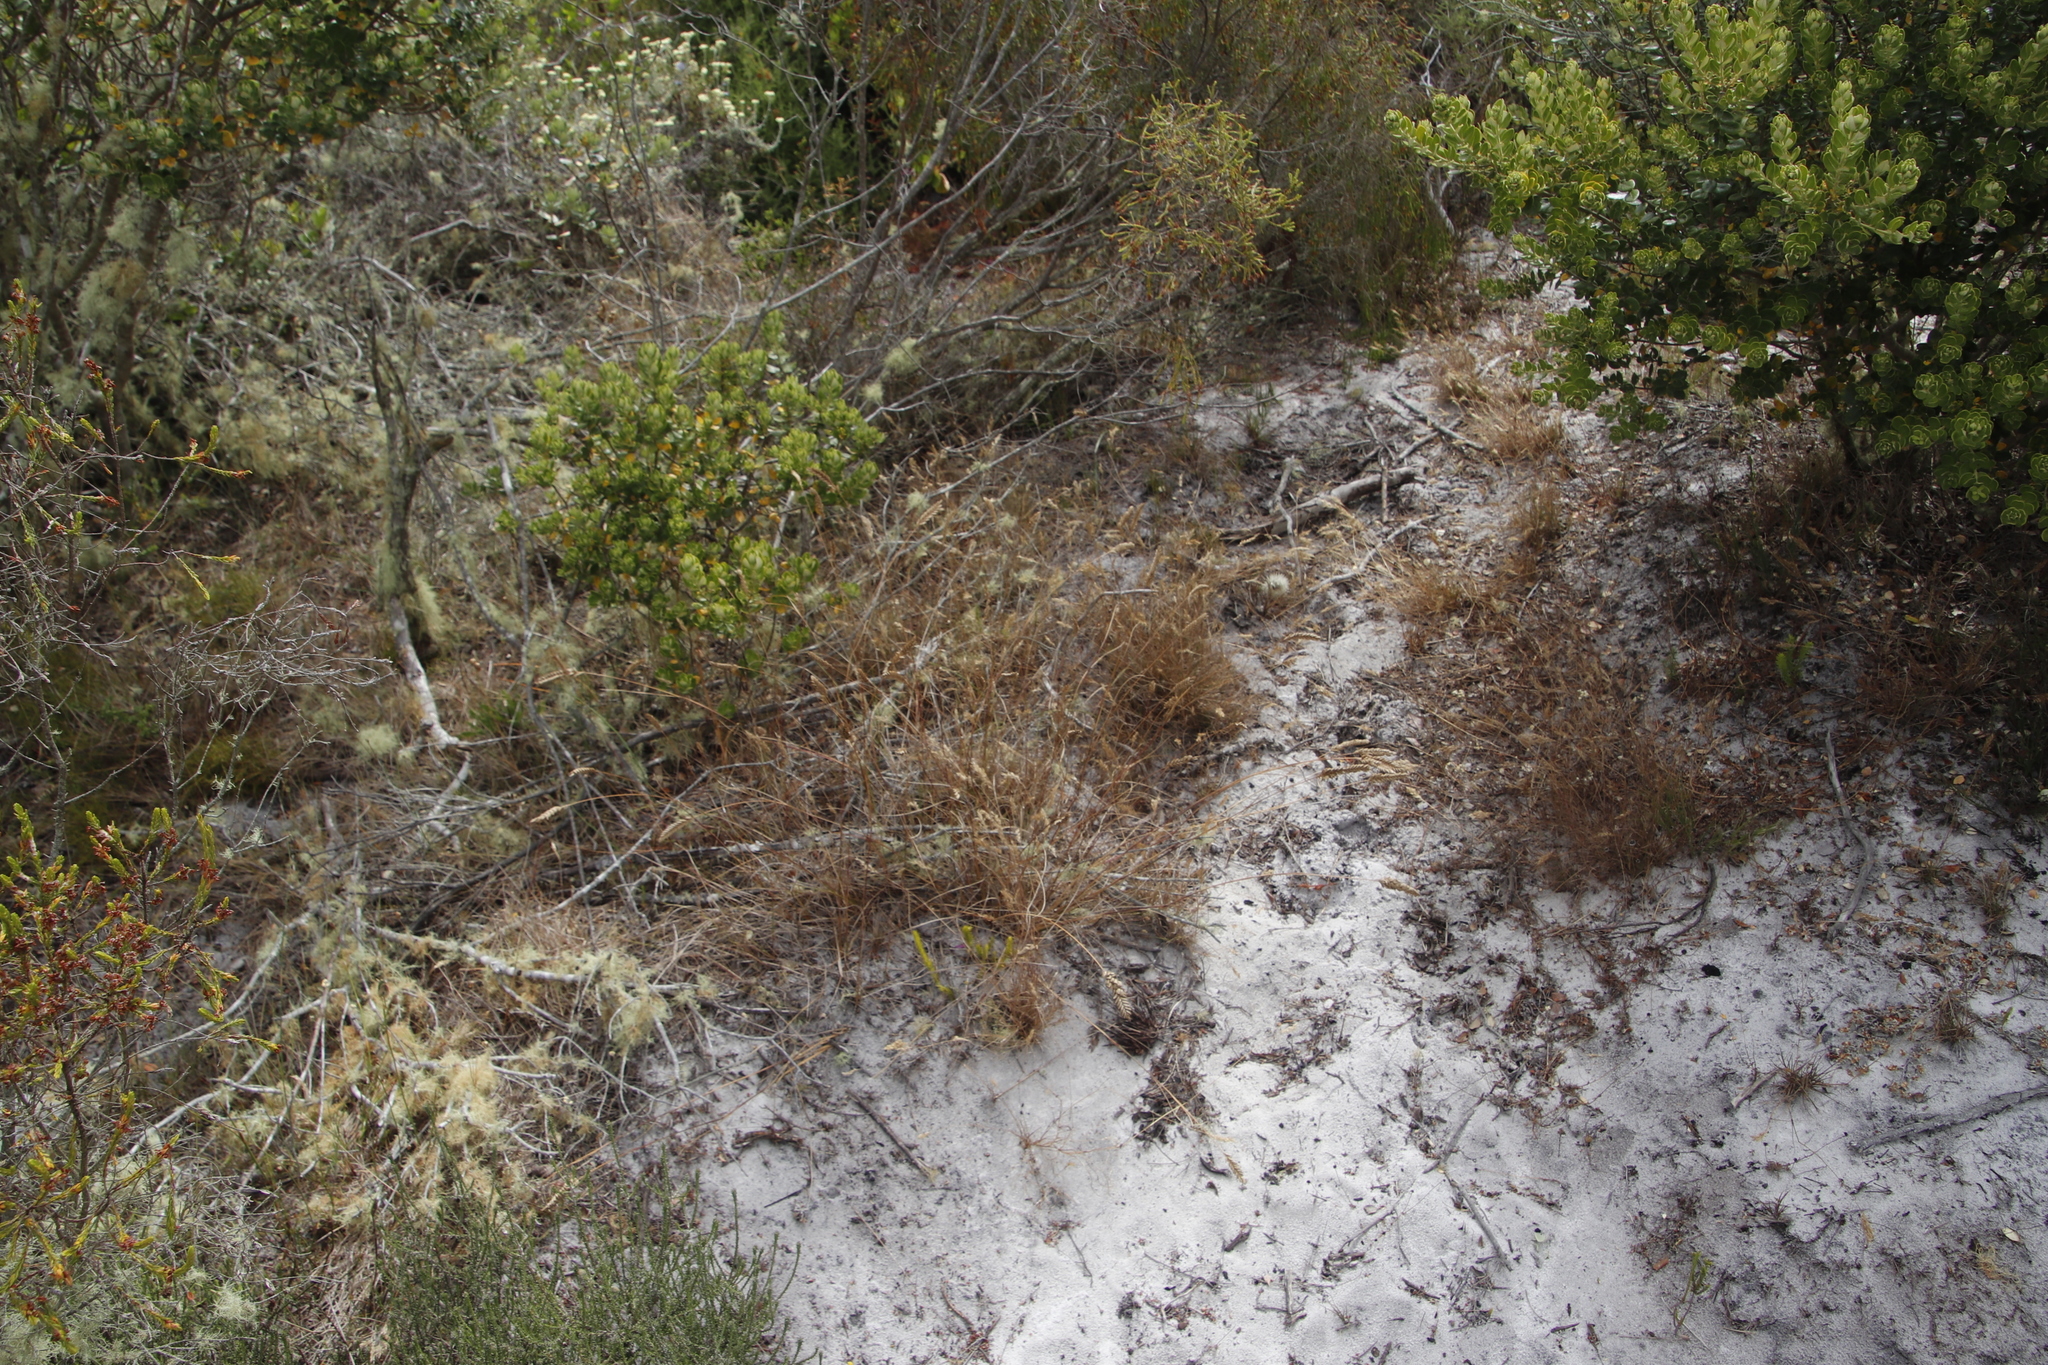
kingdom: Plantae
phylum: Tracheophyta
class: Liliopsida
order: Poales
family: Poaceae
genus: Tribolium
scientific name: Tribolium uniolae
